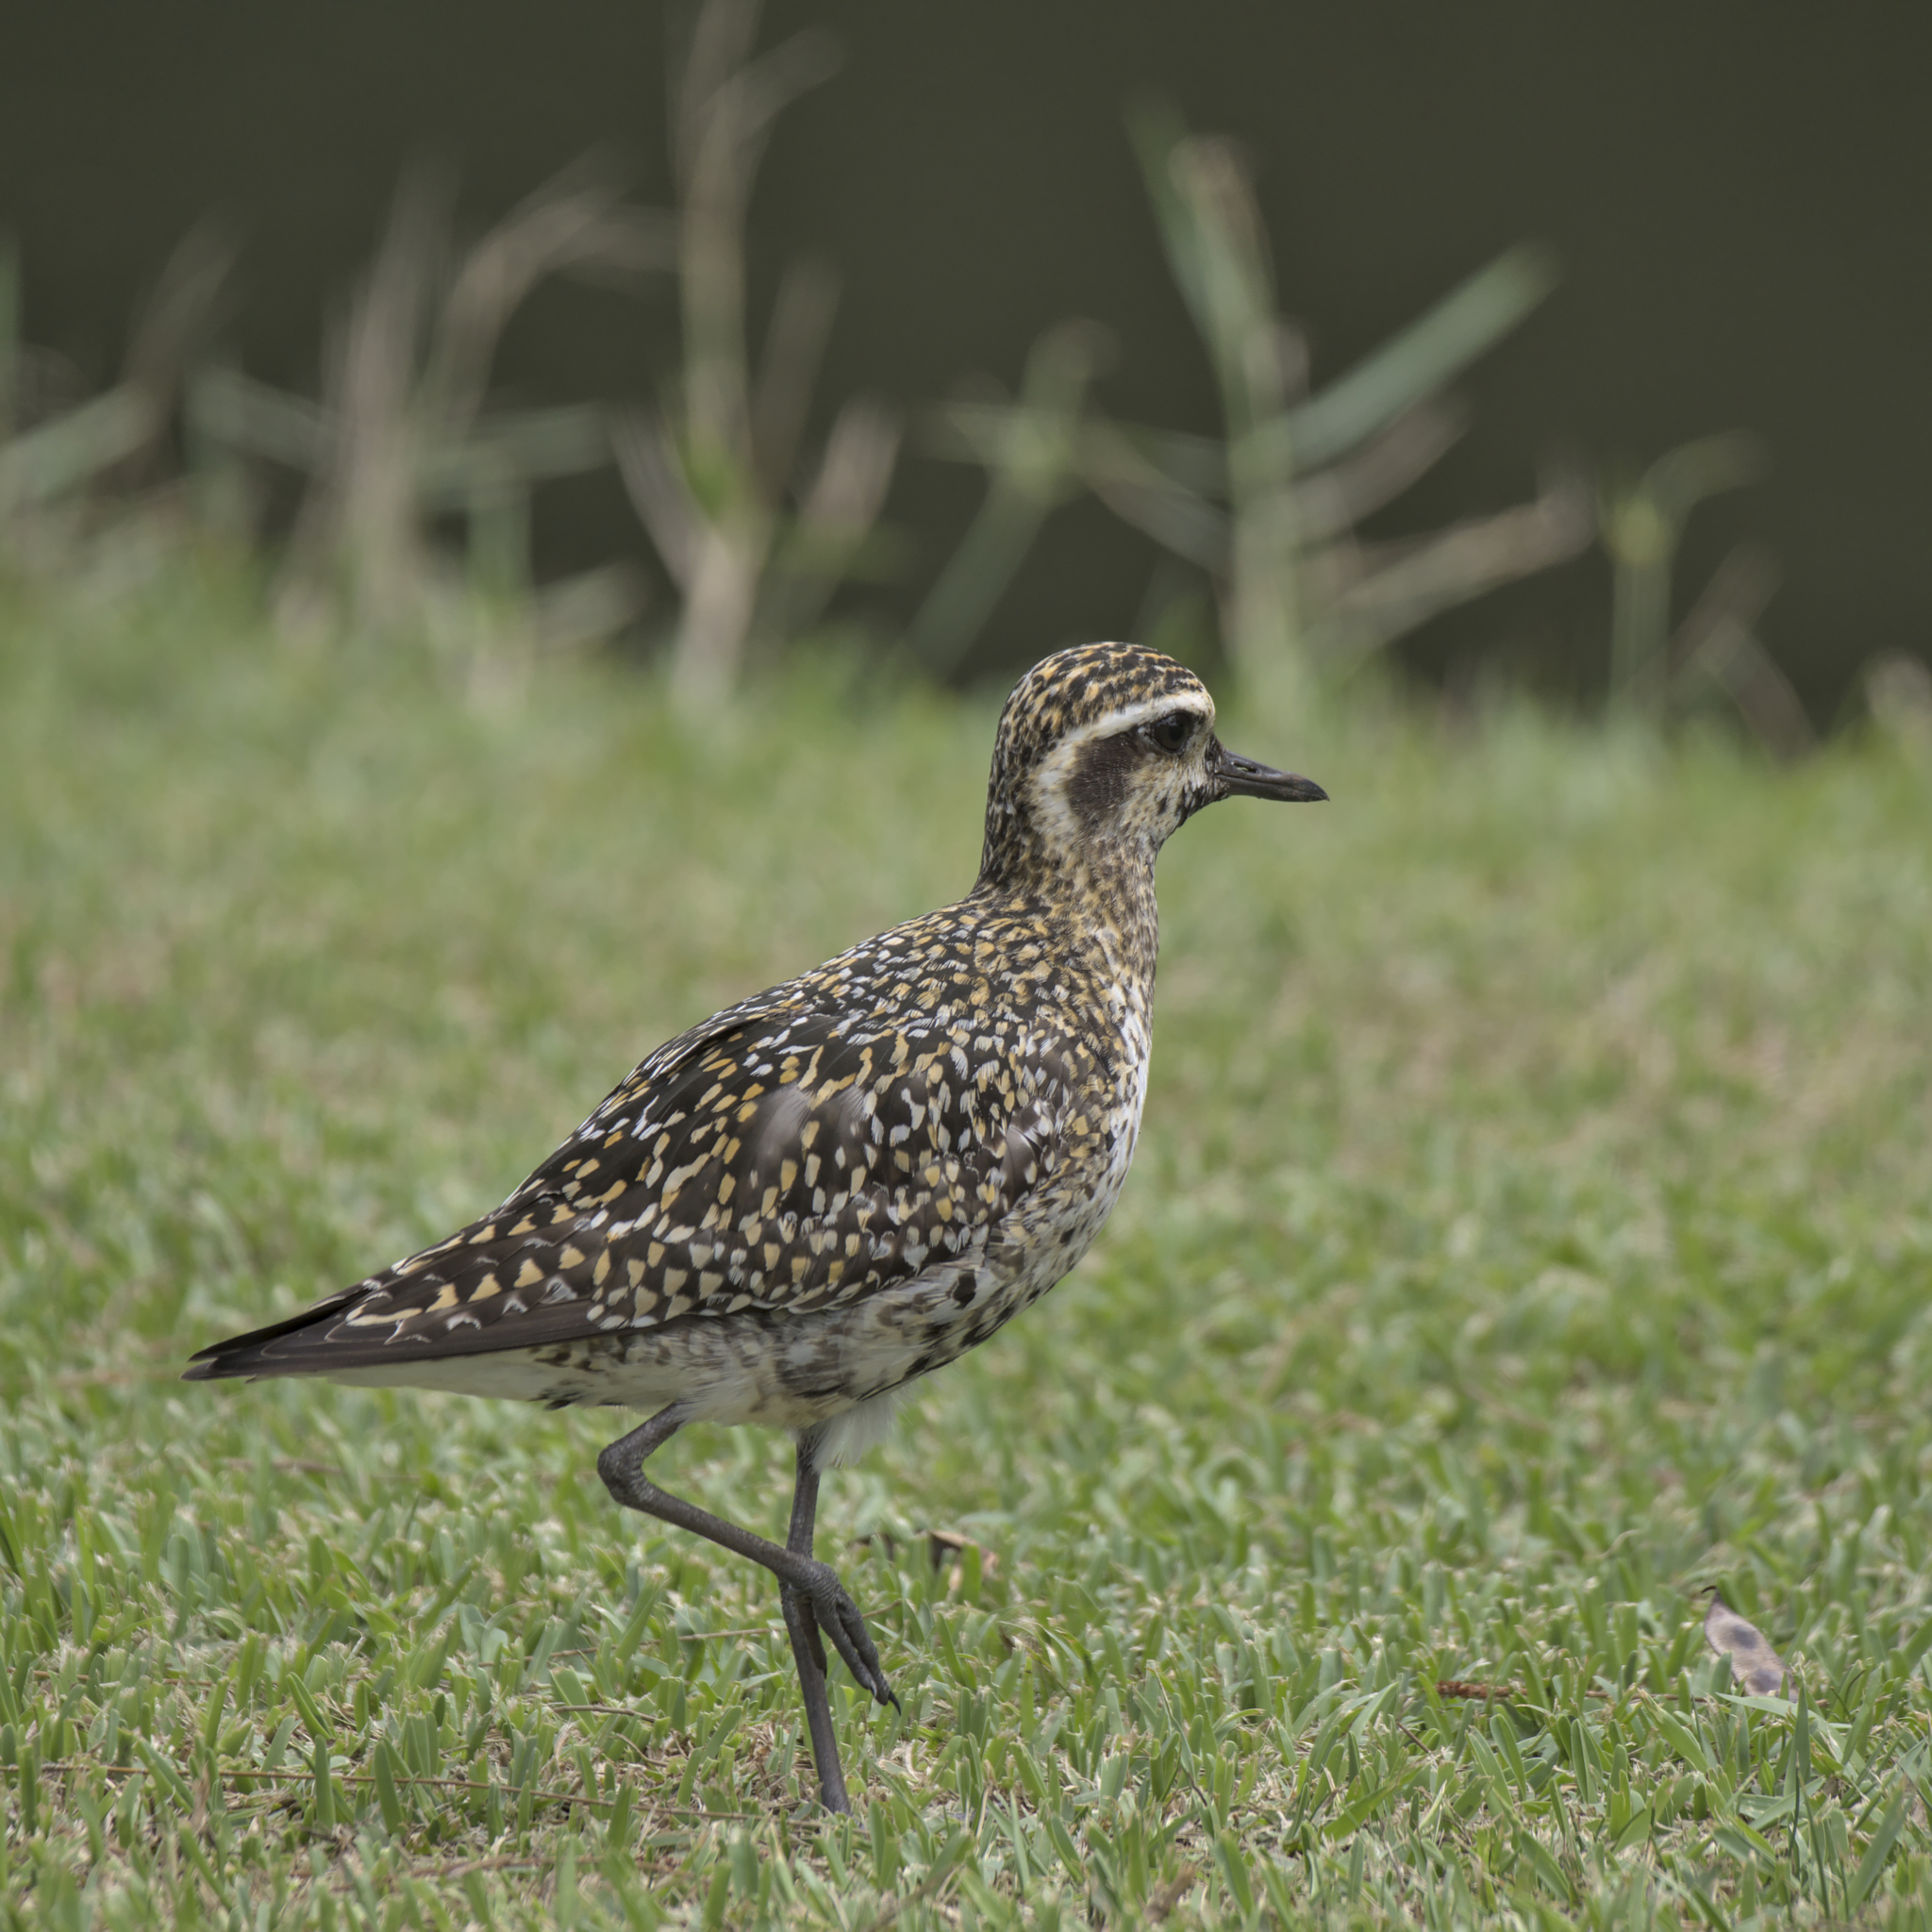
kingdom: Animalia
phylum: Chordata
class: Aves
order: Charadriiformes
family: Charadriidae
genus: Pluvialis
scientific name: Pluvialis fulva
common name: Pacific golden plover
